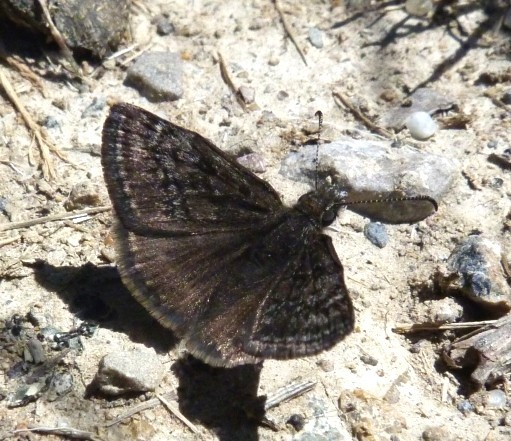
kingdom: Animalia
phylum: Arthropoda
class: Insecta
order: Lepidoptera
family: Hesperiidae
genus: Erynnis
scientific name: Erynnis tages
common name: Dingy skipper
